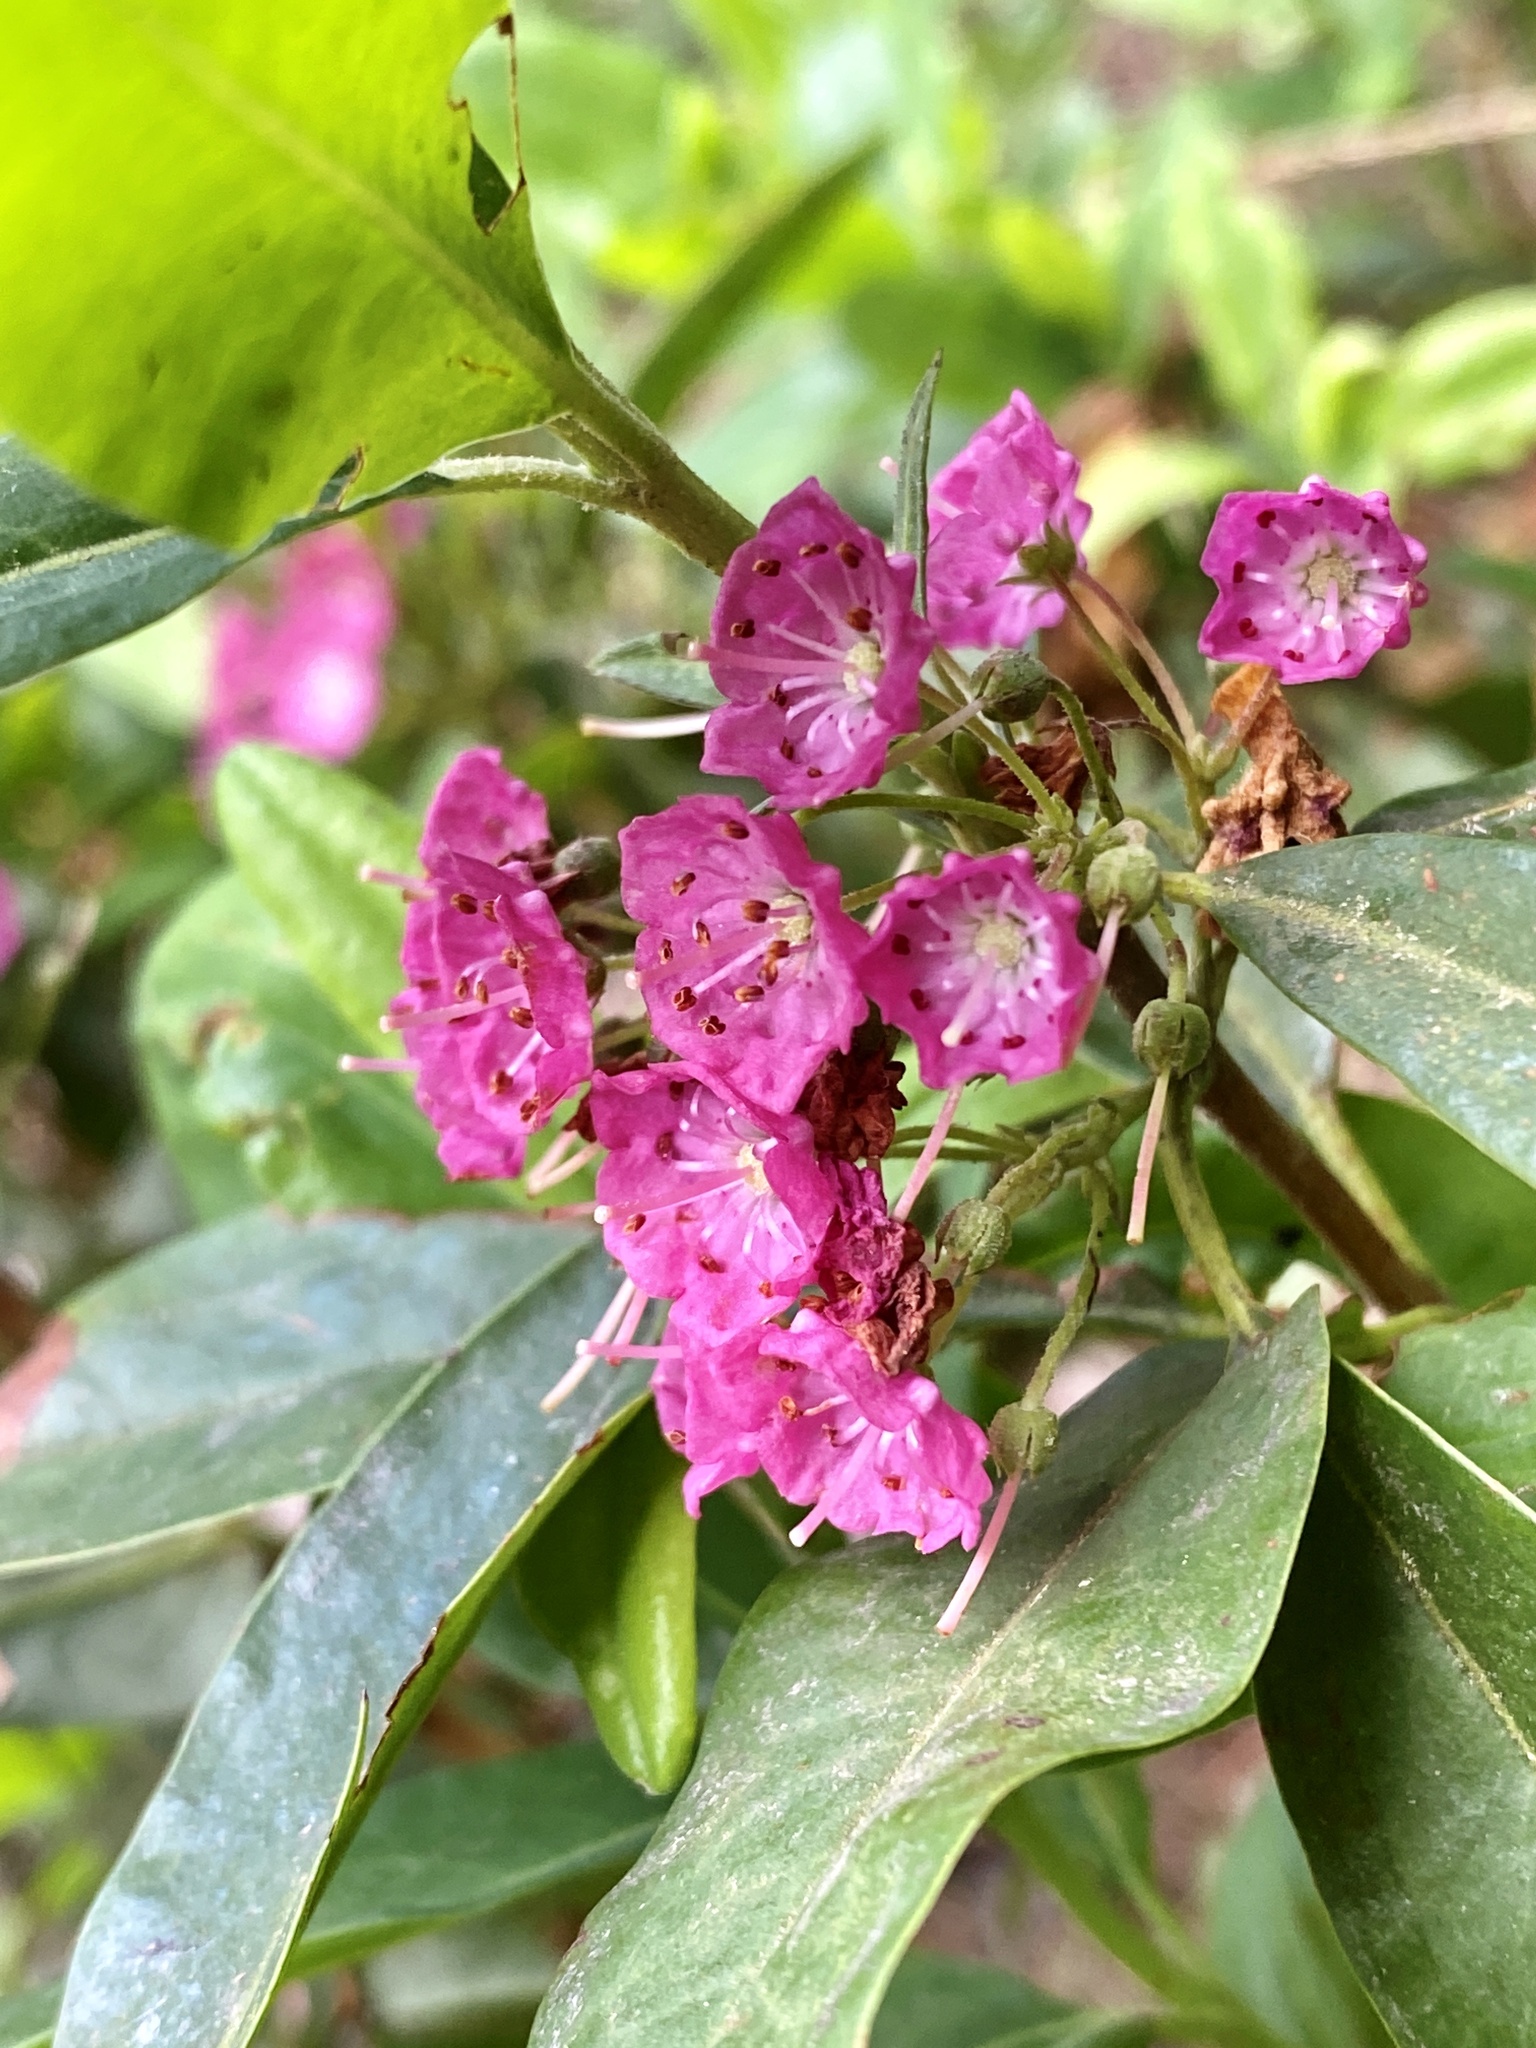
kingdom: Plantae
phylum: Tracheophyta
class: Magnoliopsida
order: Ericales
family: Ericaceae
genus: Kalmia
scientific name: Kalmia angustifolia
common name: Sheep-laurel
